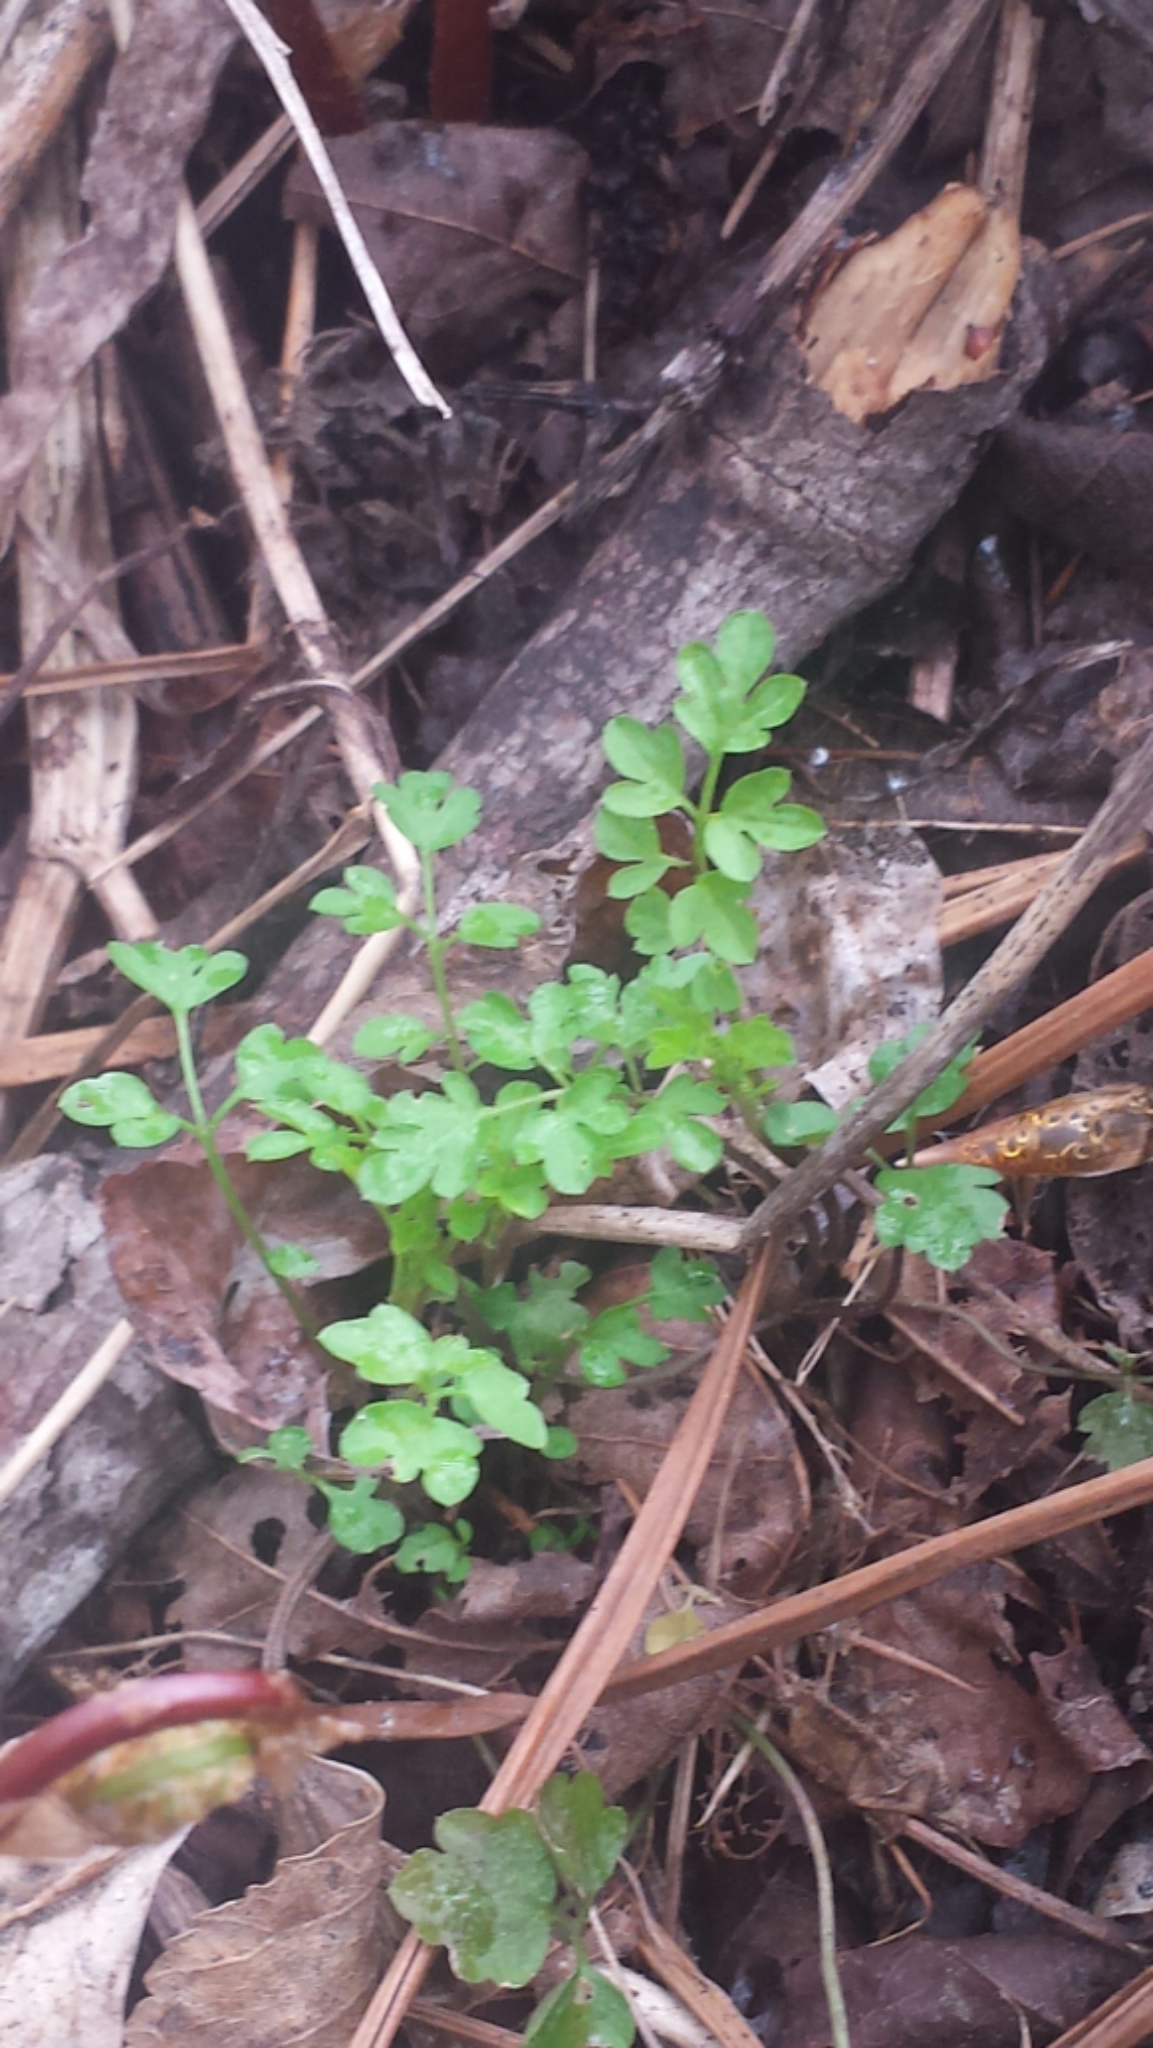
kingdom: Plantae
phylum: Tracheophyta
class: Magnoliopsida
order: Brassicales
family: Brassicaceae
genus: Cardamine
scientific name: Cardamine impatiens
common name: Narrow-leaved bitter-cress
